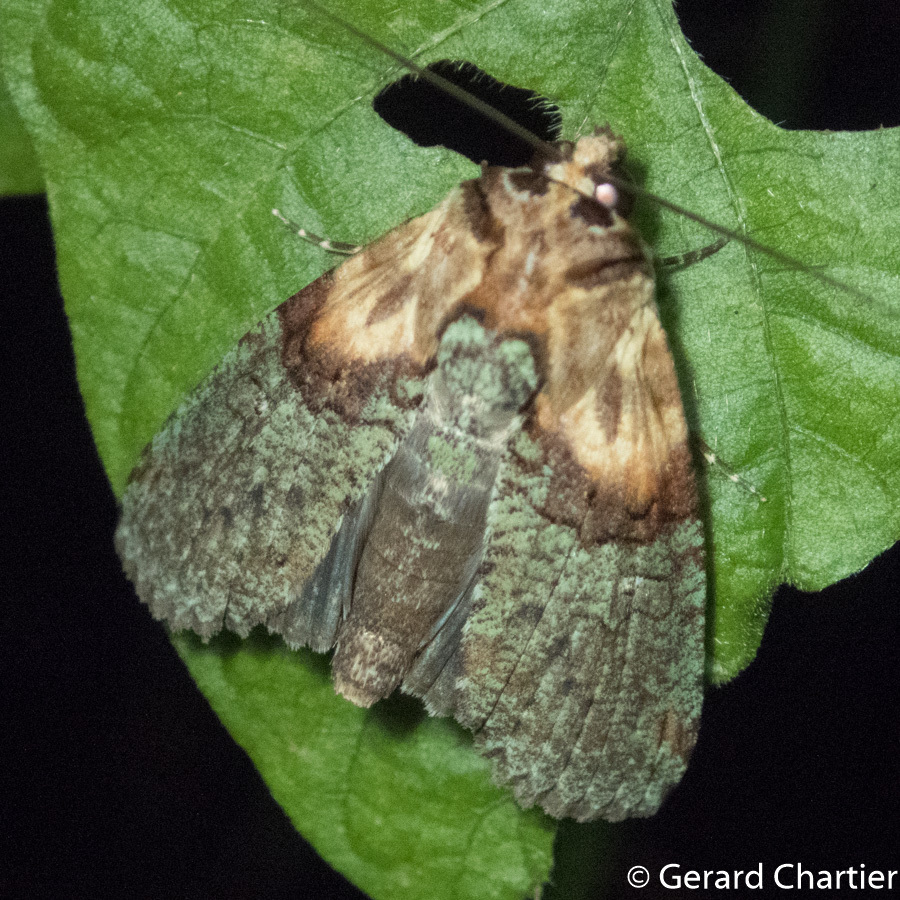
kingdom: Animalia
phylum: Arthropoda
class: Insecta
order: Lepidoptera
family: Euteliidae
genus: Stictoptera
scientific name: Stictoptera columba
